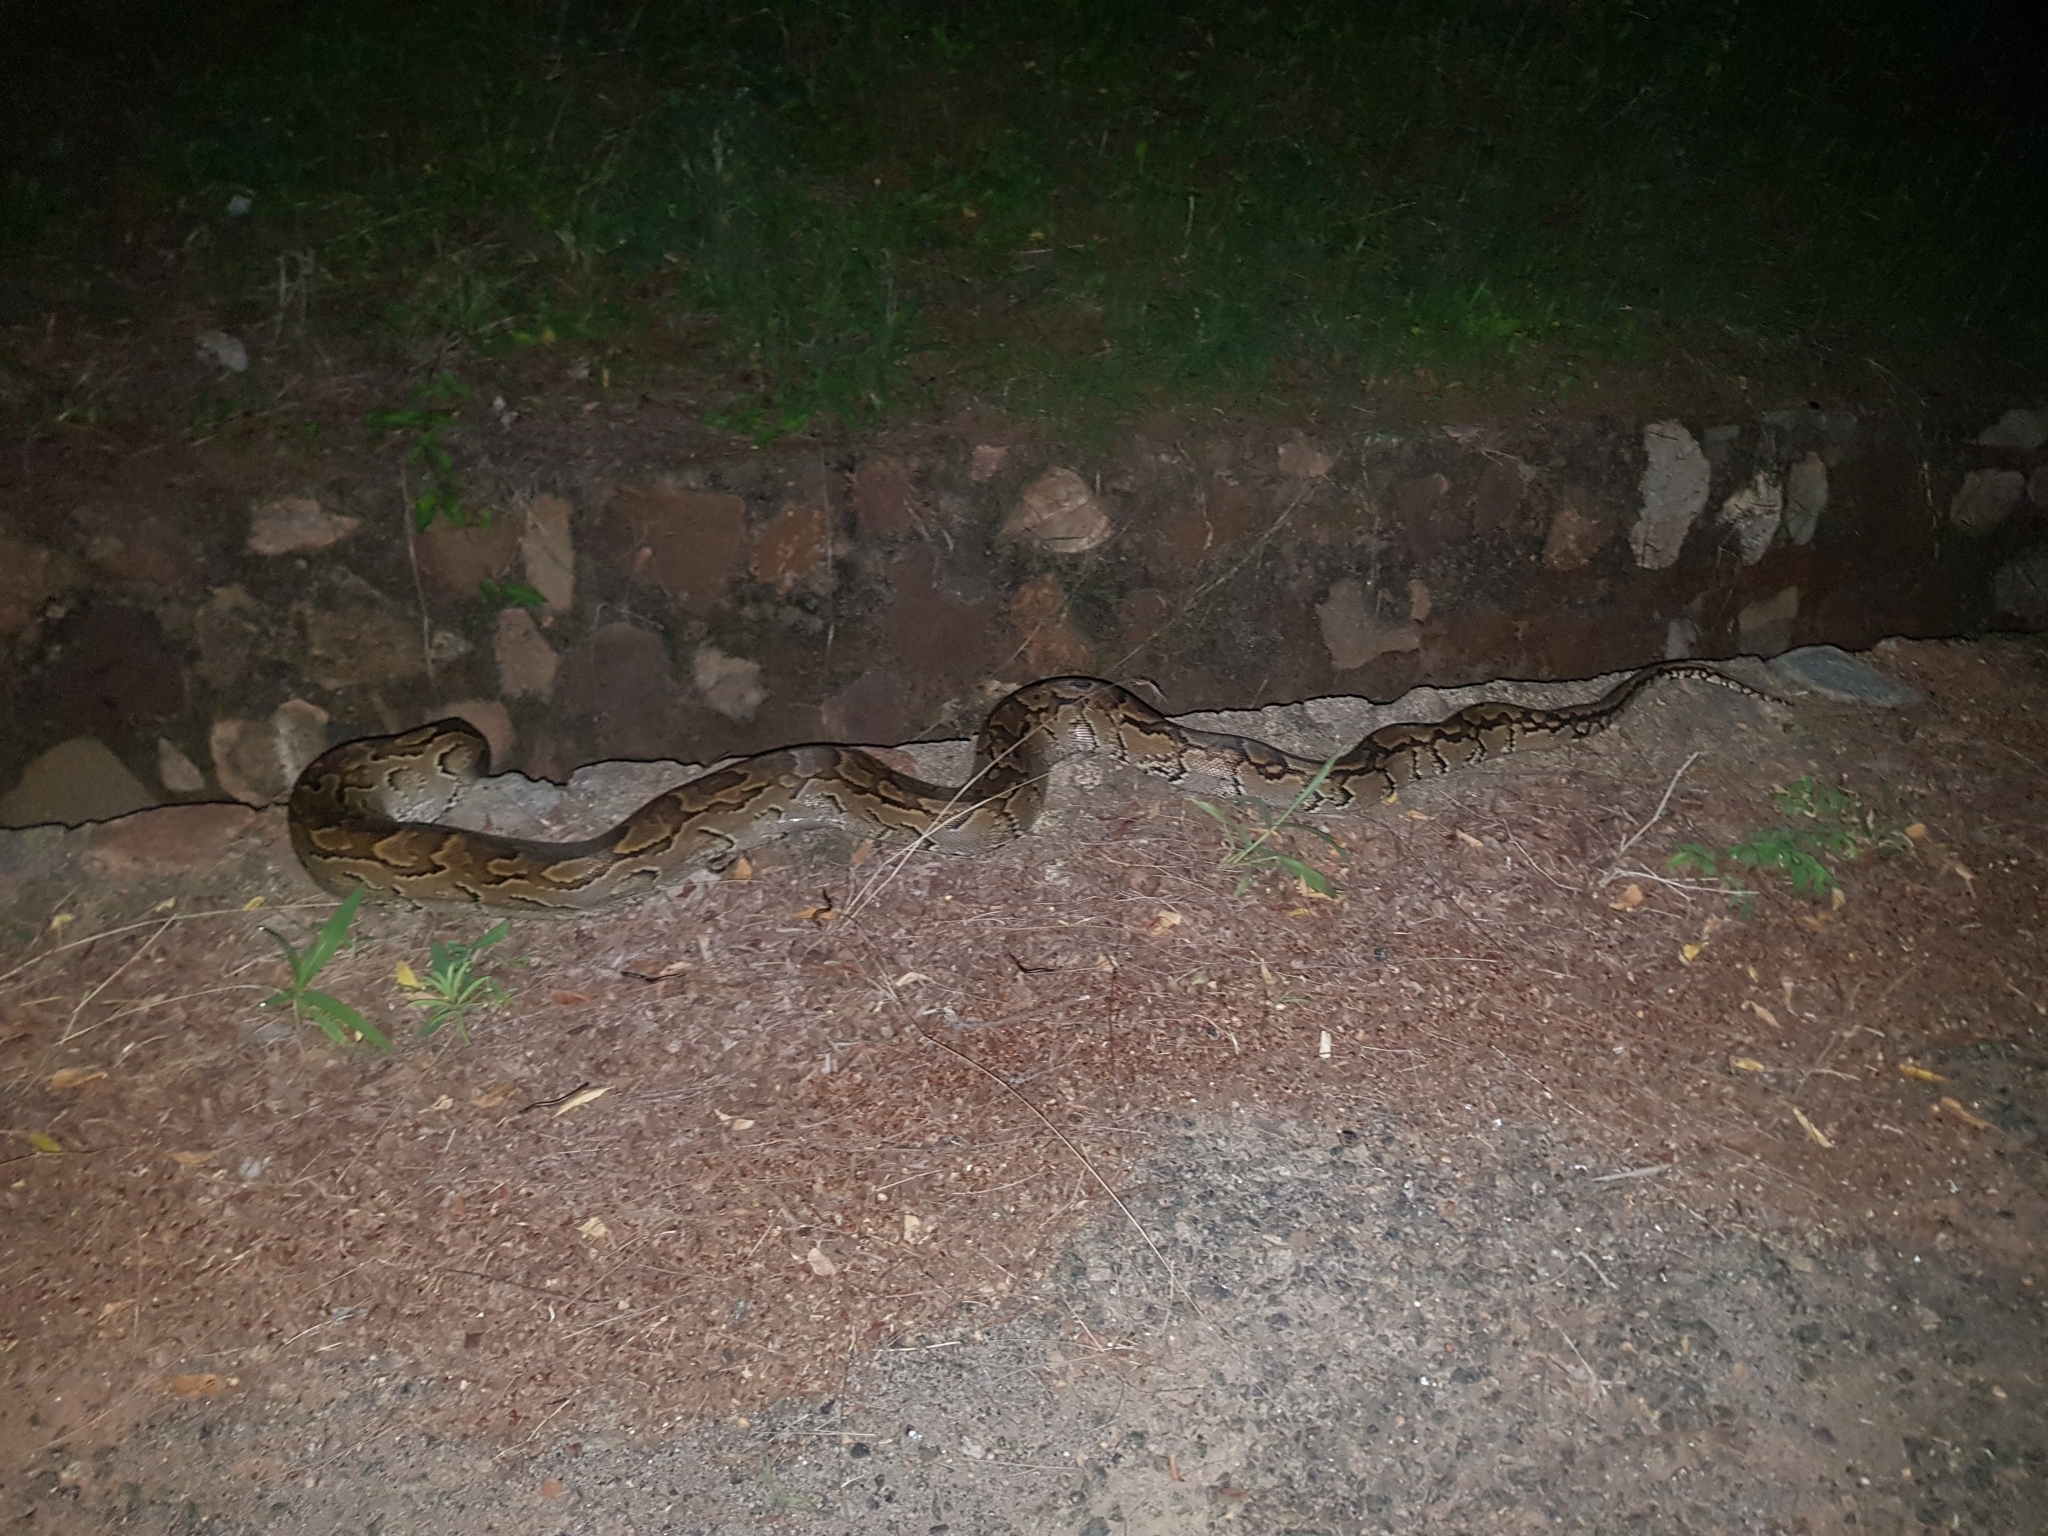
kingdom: Animalia
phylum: Chordata
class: Squamata
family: Pythonidae
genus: Python
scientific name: Python sebae
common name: African rock python
